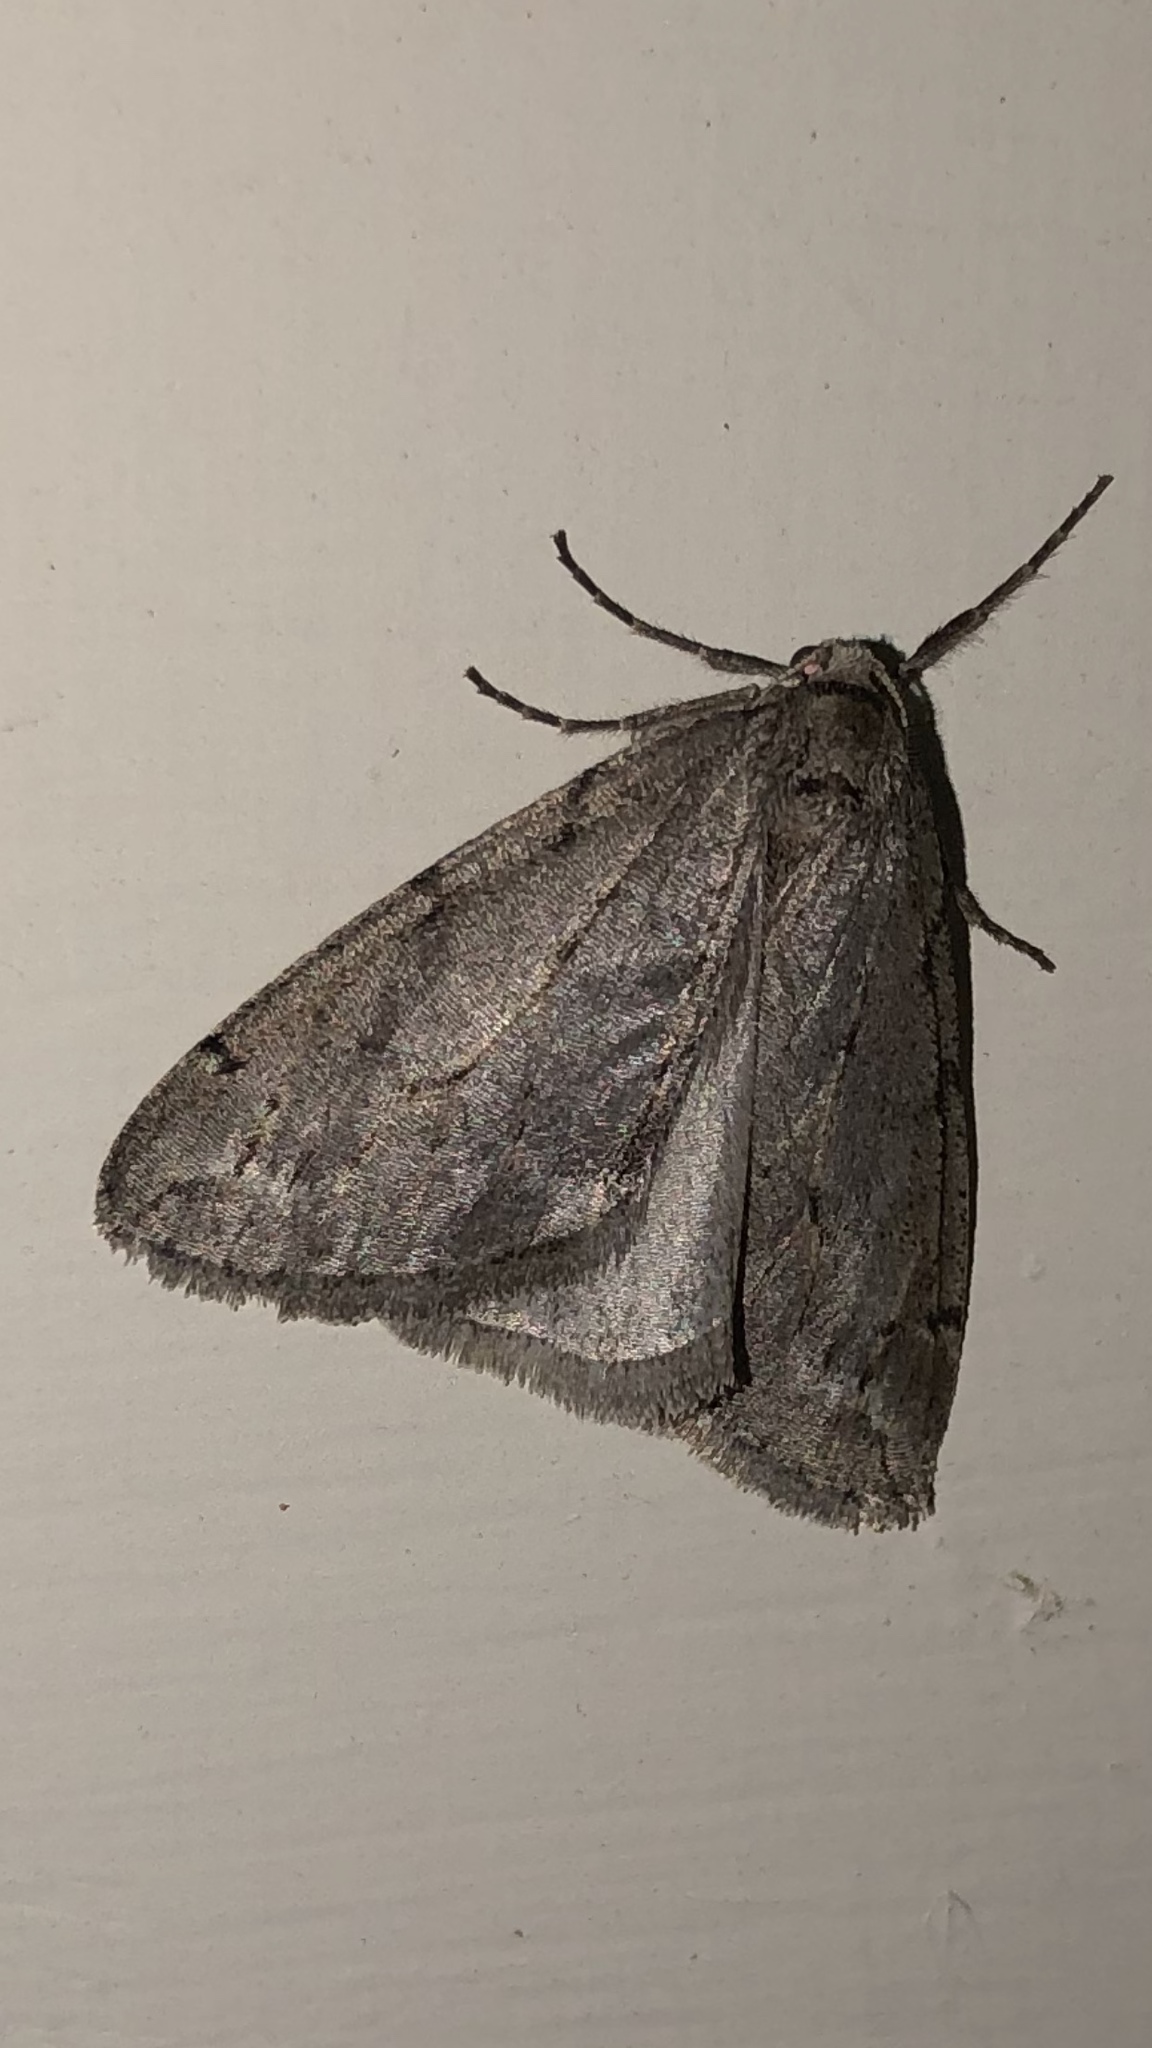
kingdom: Animalia
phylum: Arthropoda
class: Insecta
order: Lepidoptera
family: Geometridae
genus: Paleacrita
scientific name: Paleacrita vernata
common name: Spring cankerworm
